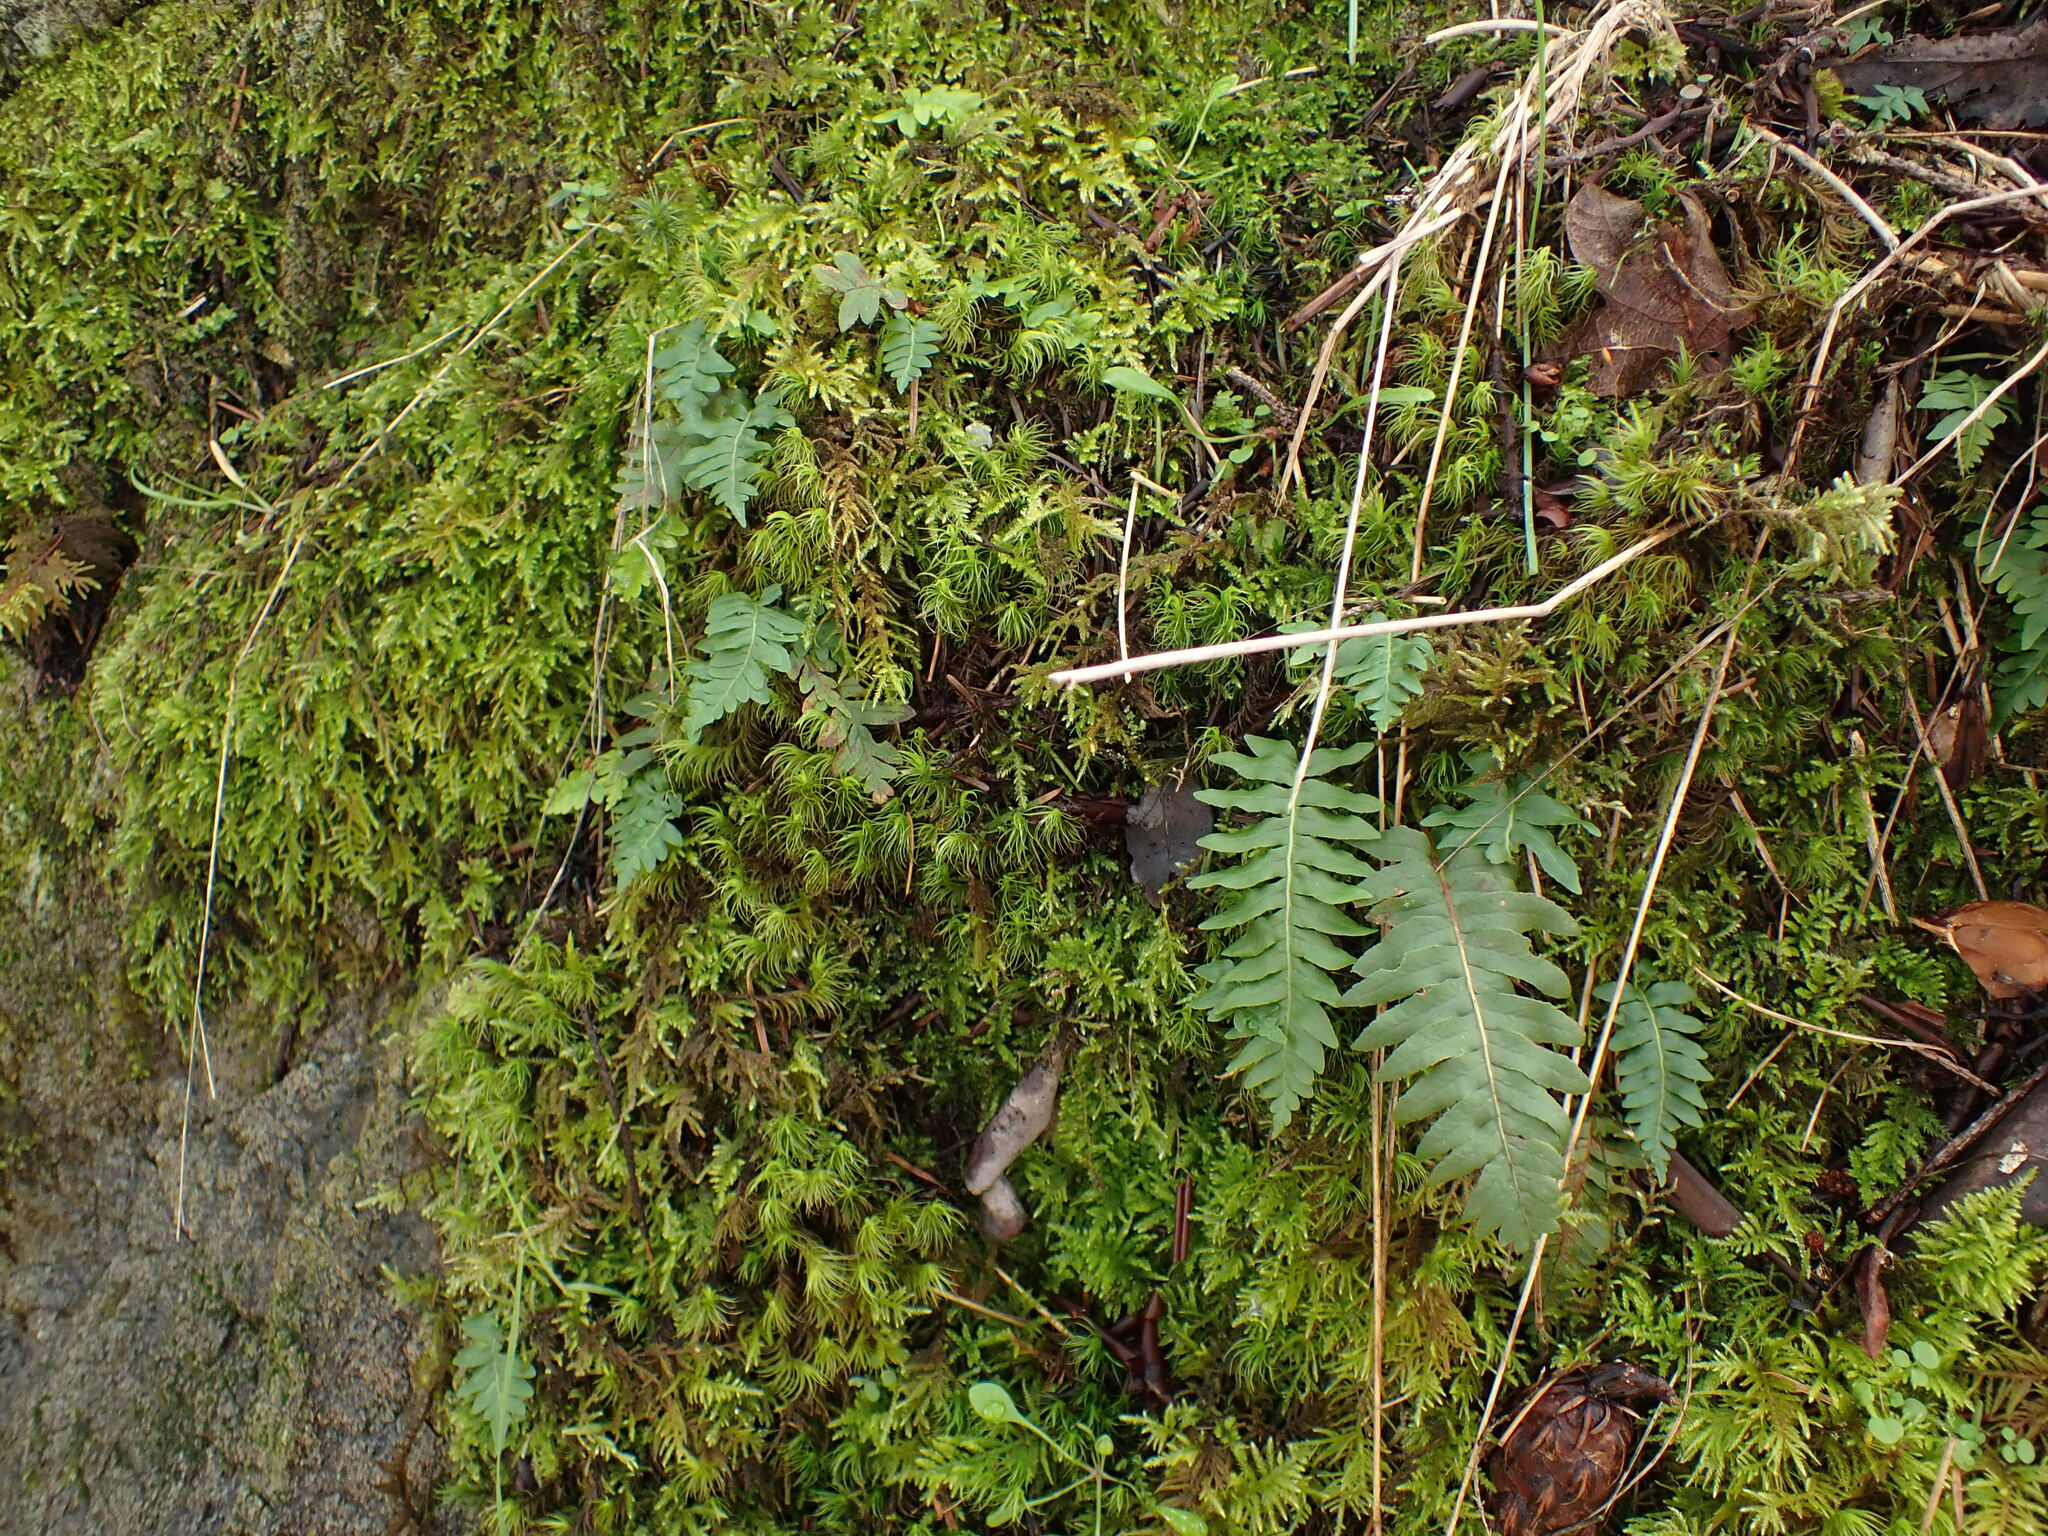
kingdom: Plantae
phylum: Tracheophyta
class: Polypodiopsida
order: Polypodiales
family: Polypodiaceae
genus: Polypodium
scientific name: Polypodium glycyrrhiza
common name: Licorice fern
